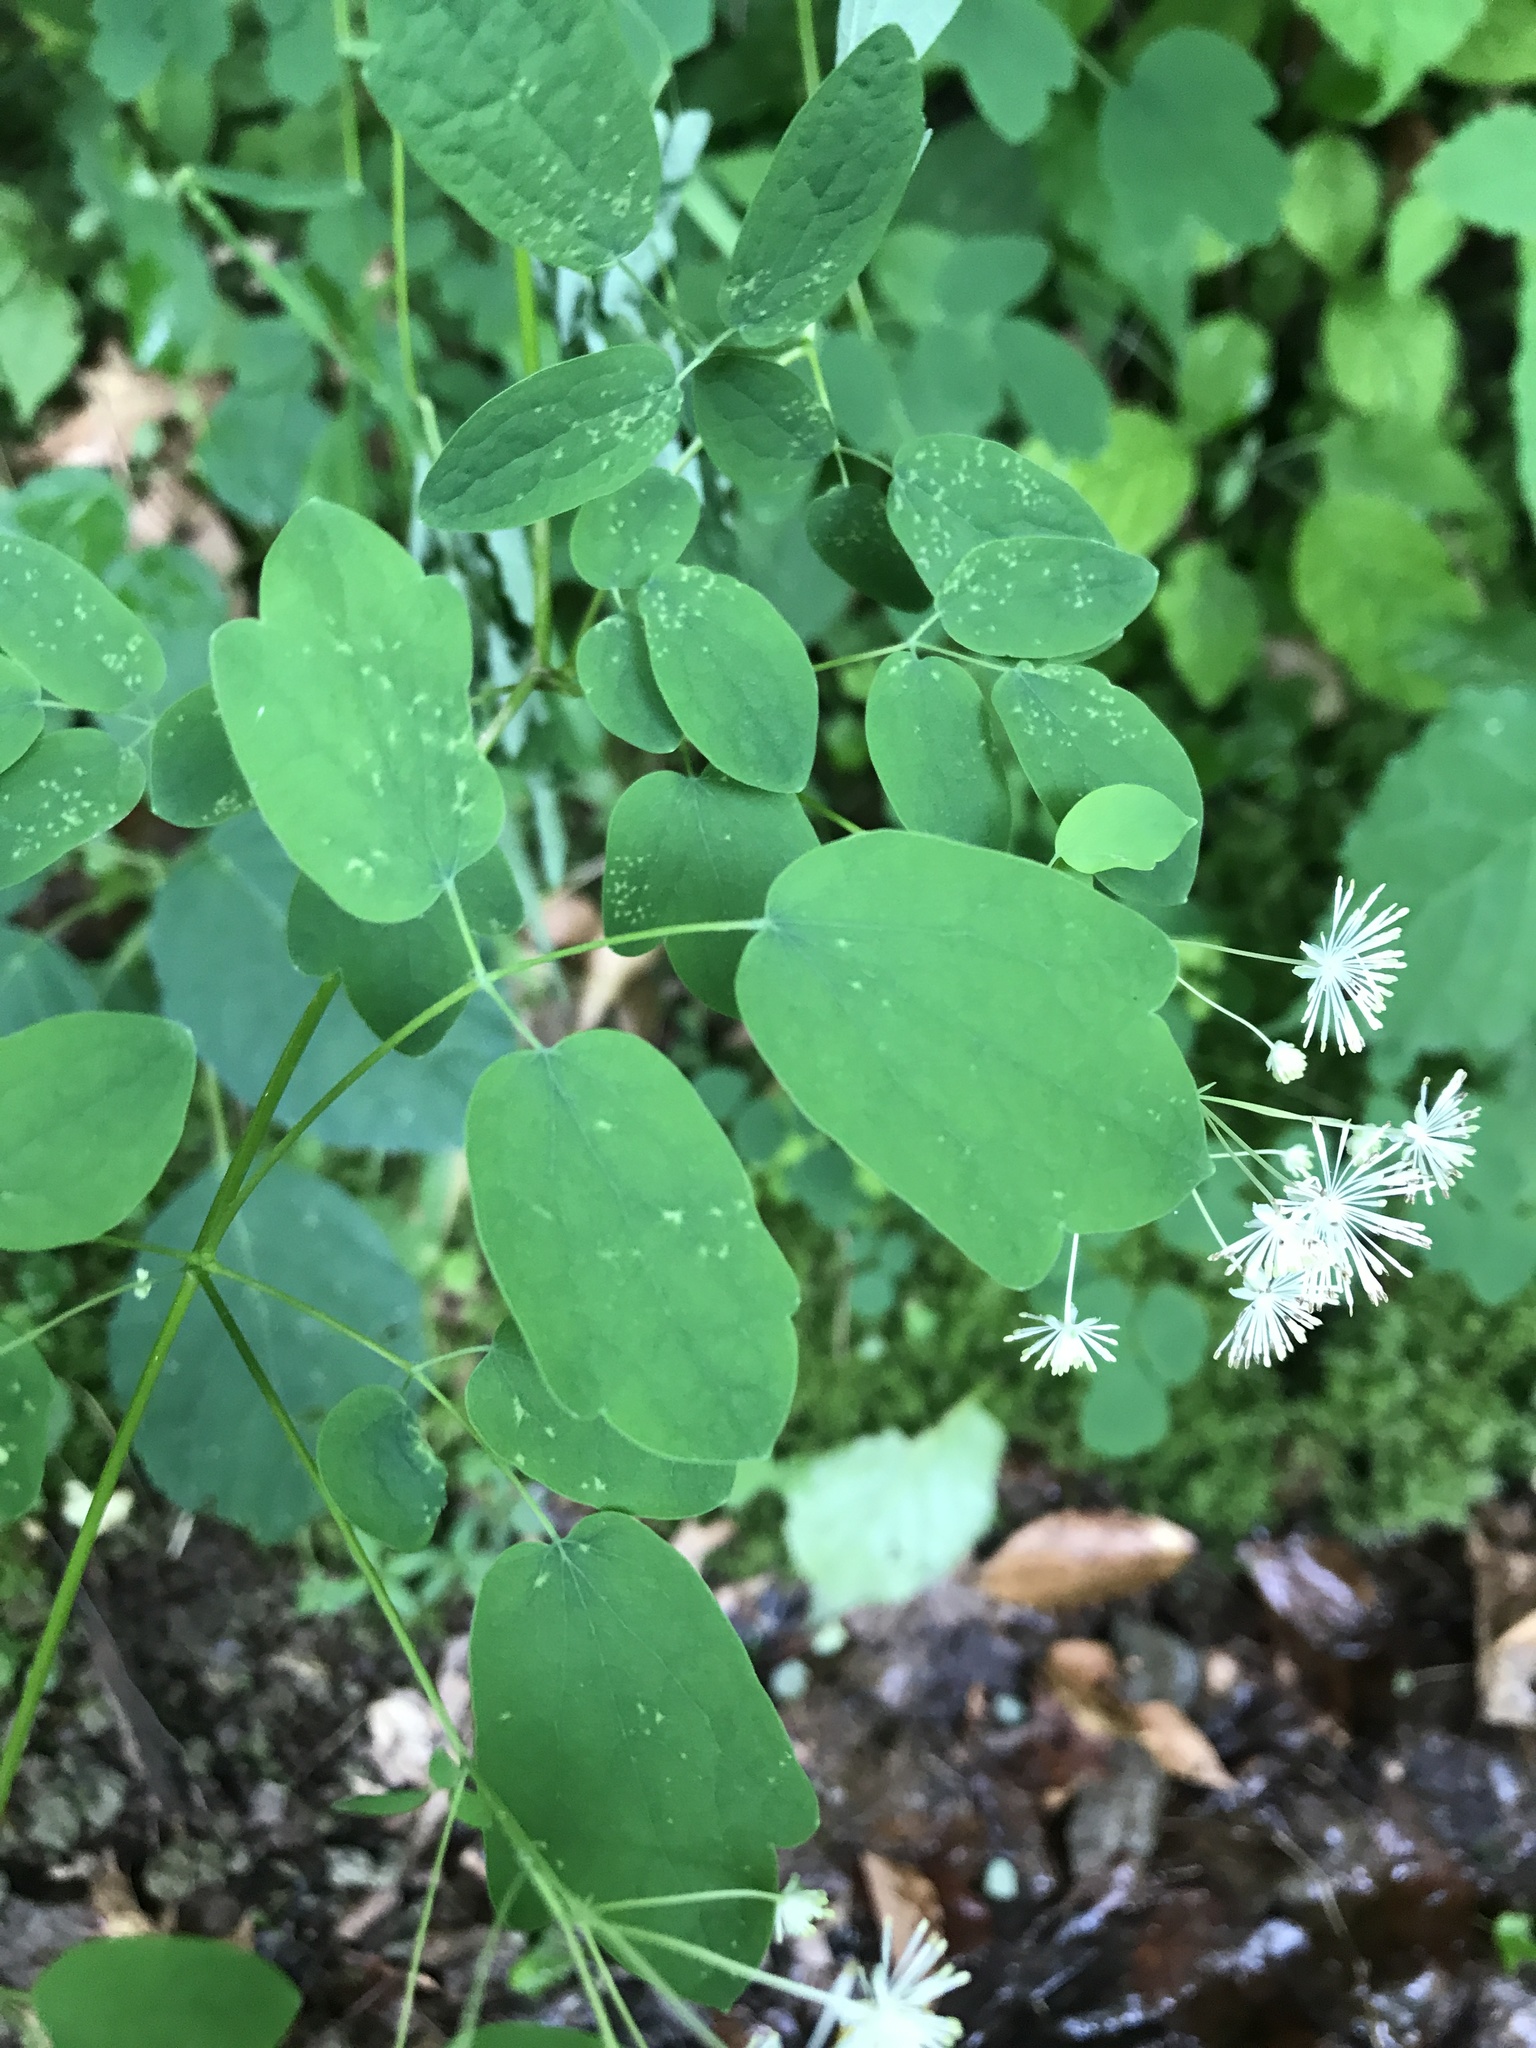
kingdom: Plantae
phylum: Tracheophyta
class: Magnoliopsida
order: Ranunculales
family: Ranunculaceae
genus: Thalictrum
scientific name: Thalictrum pubescens
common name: King-of-the-meadow
